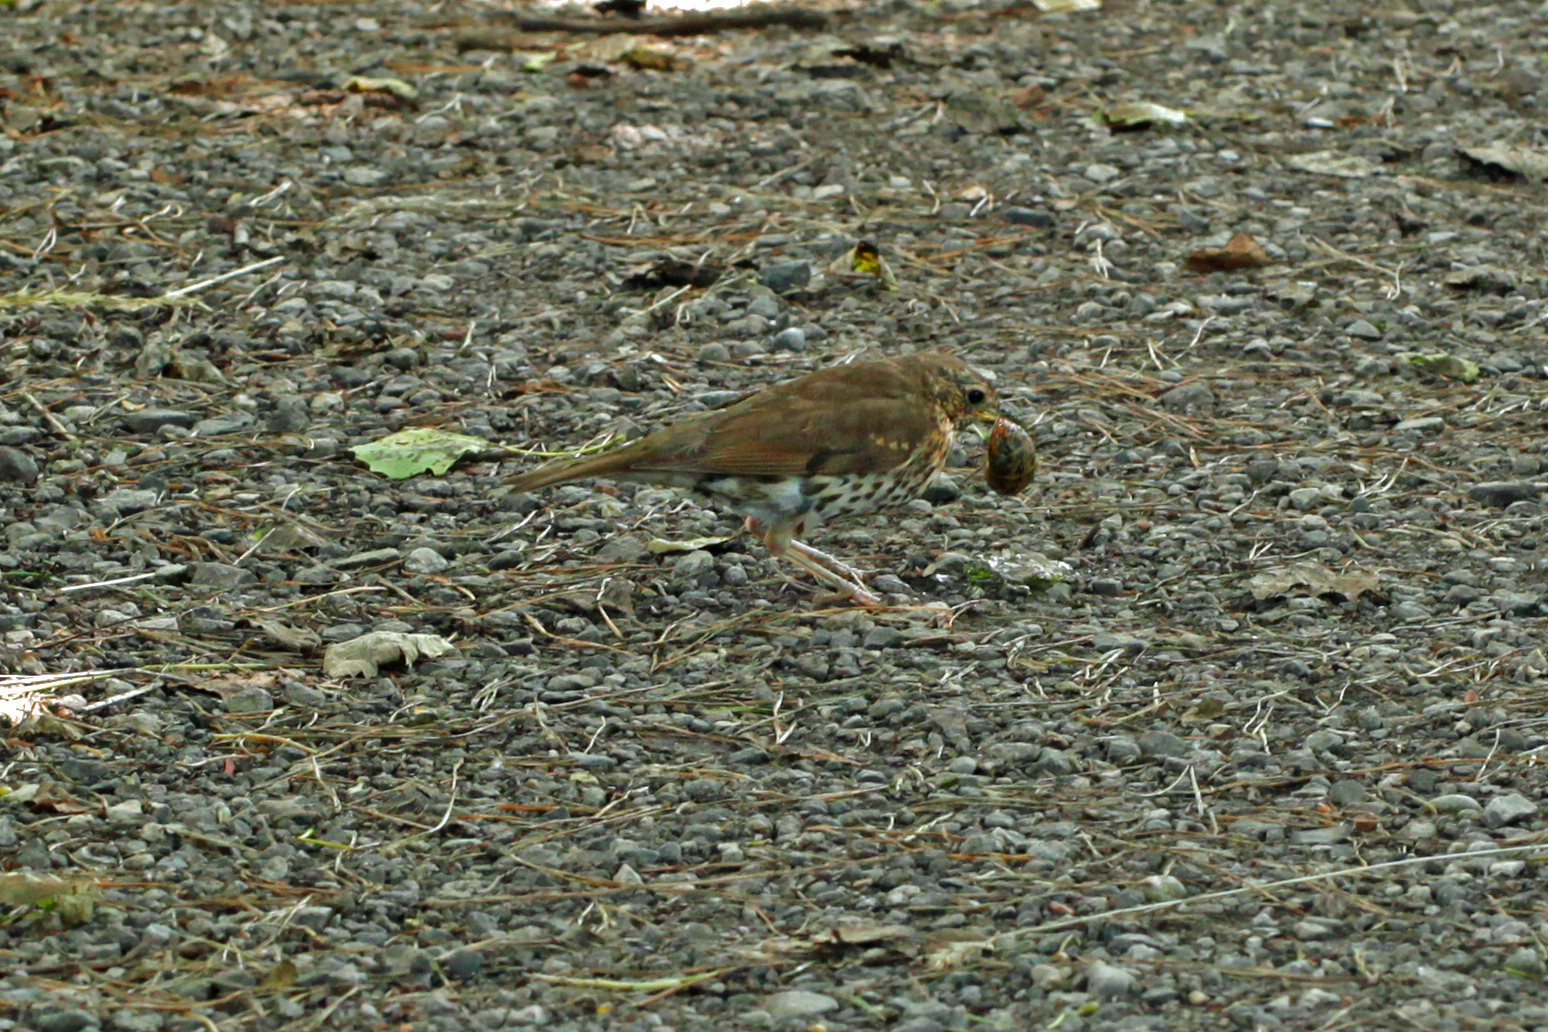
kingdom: Animalia
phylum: Chordata
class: Aves
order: Passeriformes
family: Turdidae
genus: Turdus
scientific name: Turdus philomelos
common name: Song thrush
